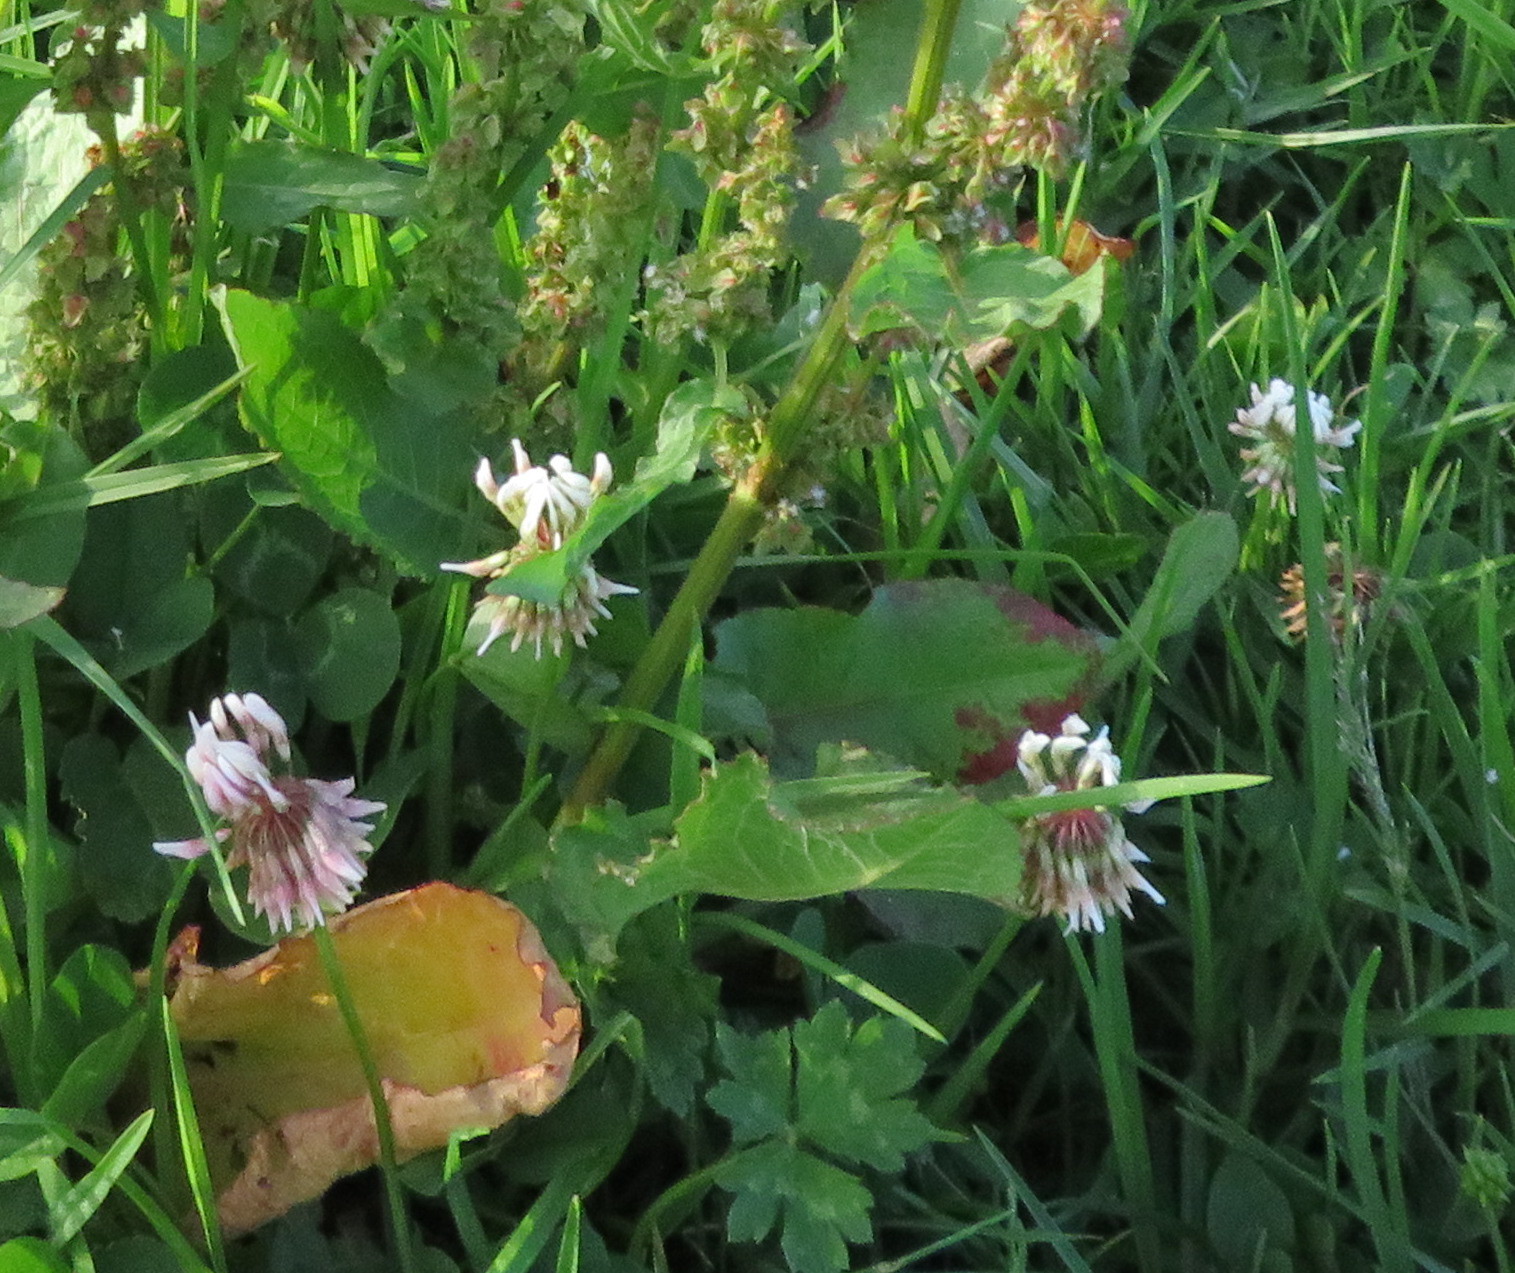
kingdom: Plantae
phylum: Tracheophyta
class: Magnoliopsida
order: Fabales
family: Fabaceae
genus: Trifolium
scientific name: Trifolium repens
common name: White clover
